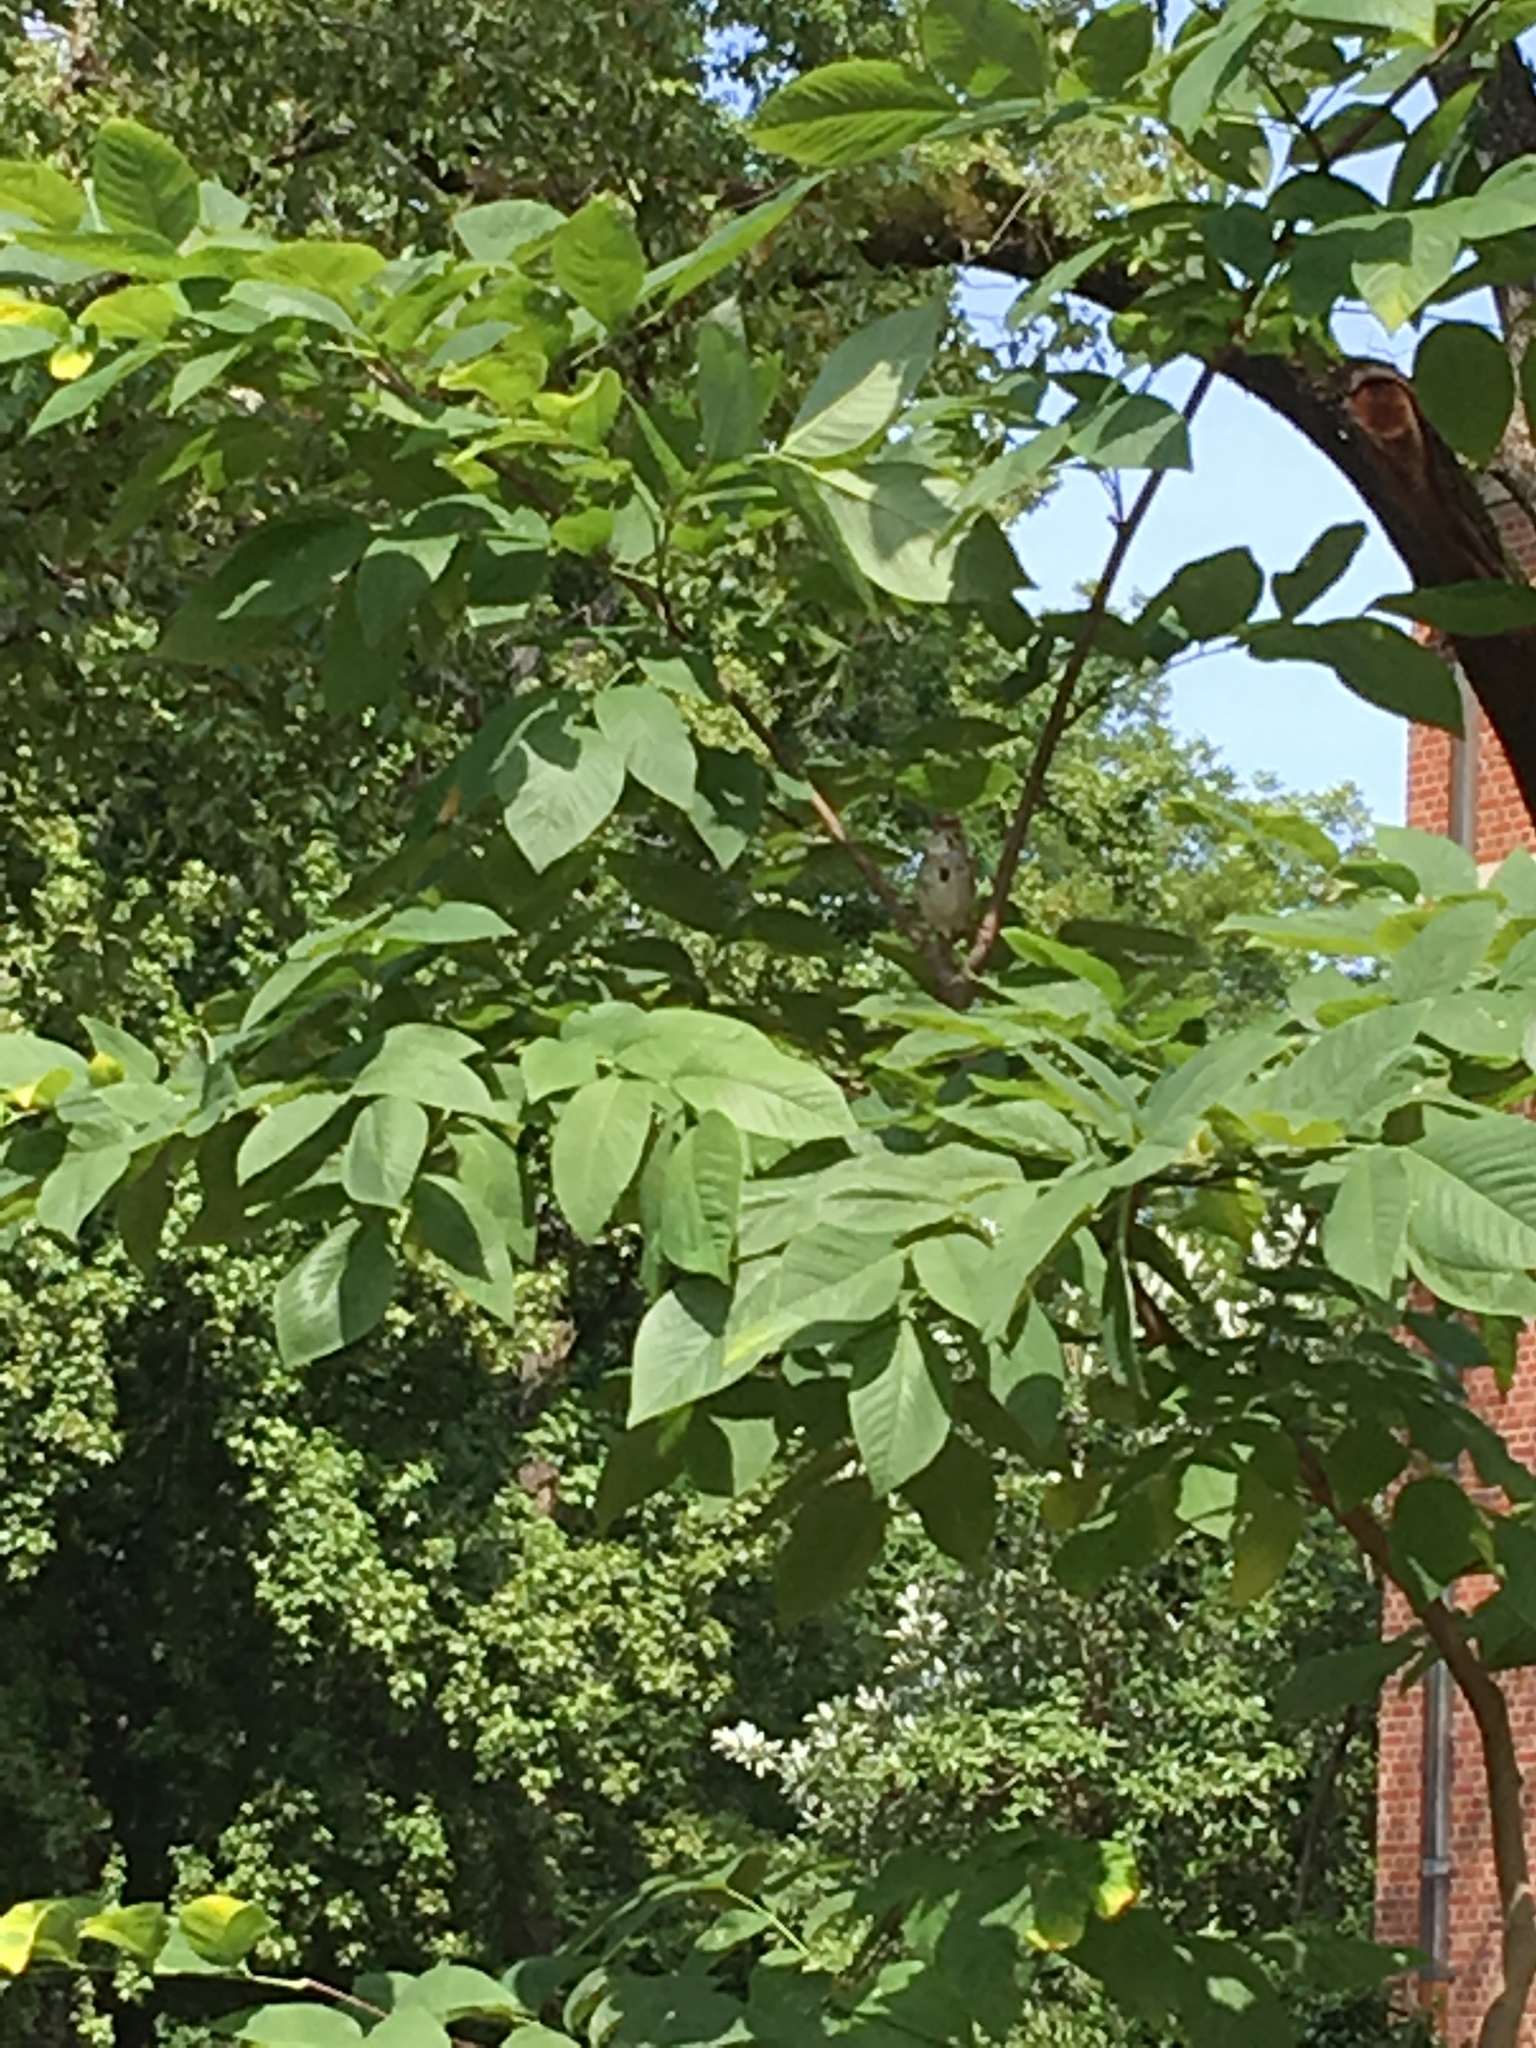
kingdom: Animalia
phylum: Chordata
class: Aves
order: Passeriformes
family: Passerellidae
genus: Melospiza
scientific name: Melospiza melodia
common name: Song sparrow
